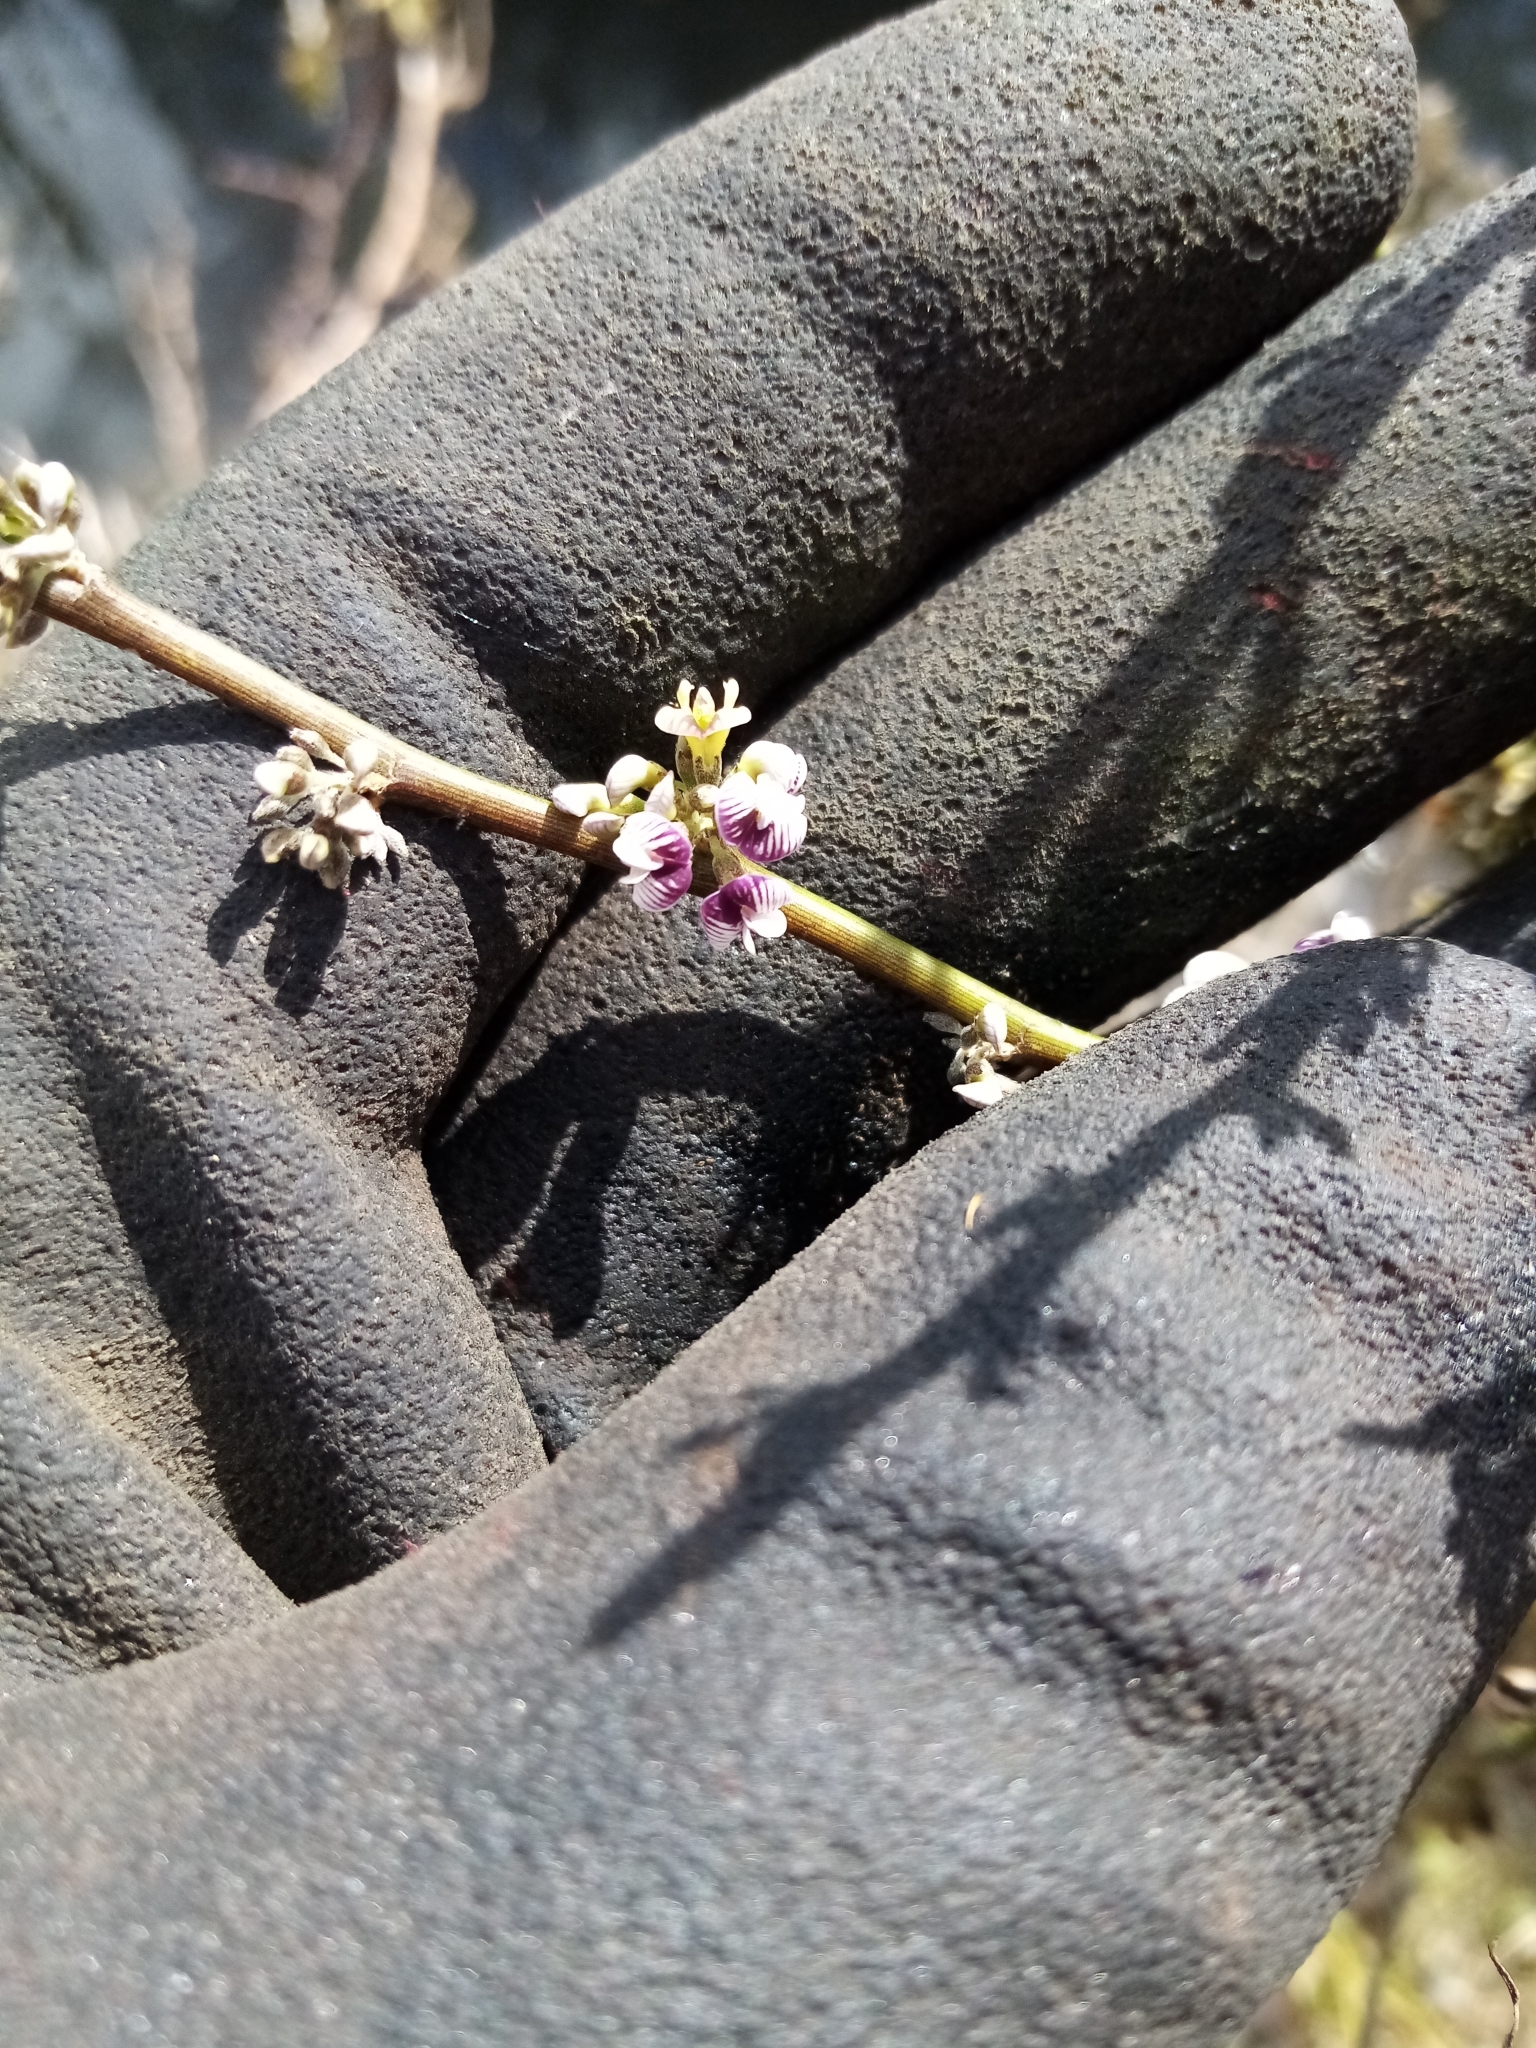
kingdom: Plantae
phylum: Tracheophyta
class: Magnoliopsida
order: Fabales
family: Fabaceae
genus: Carmichaelia
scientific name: Carmichaelia australis
